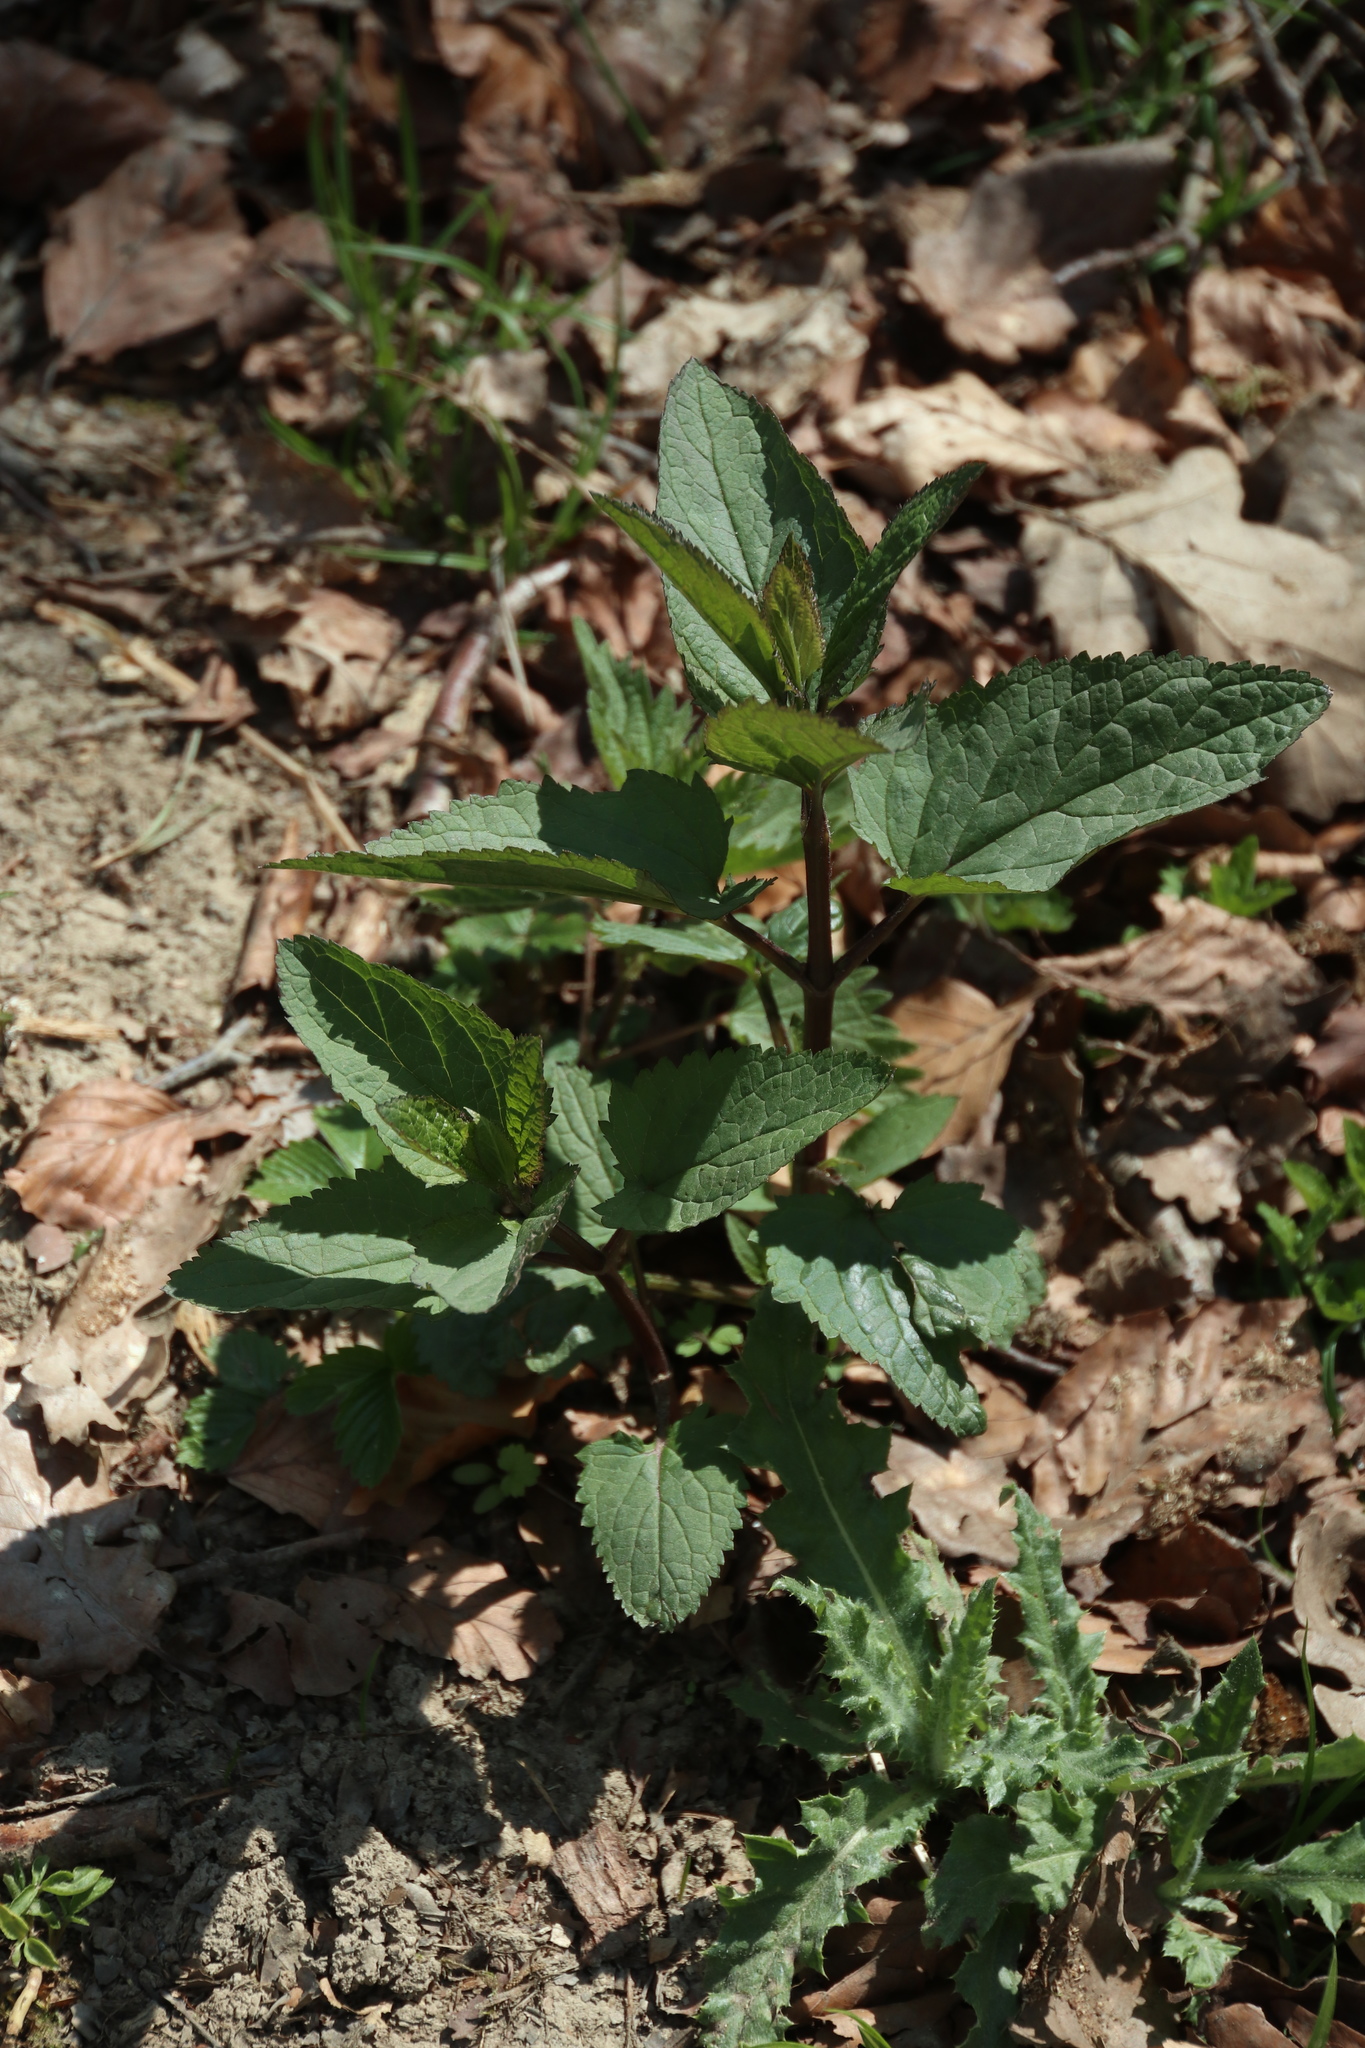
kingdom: Plantae
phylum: Tracheophyta
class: Magnoliopsida
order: Lamiales
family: Scrophulariaceae
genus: Scrophularia
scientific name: Scrophularia nodosa
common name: Common figwort
